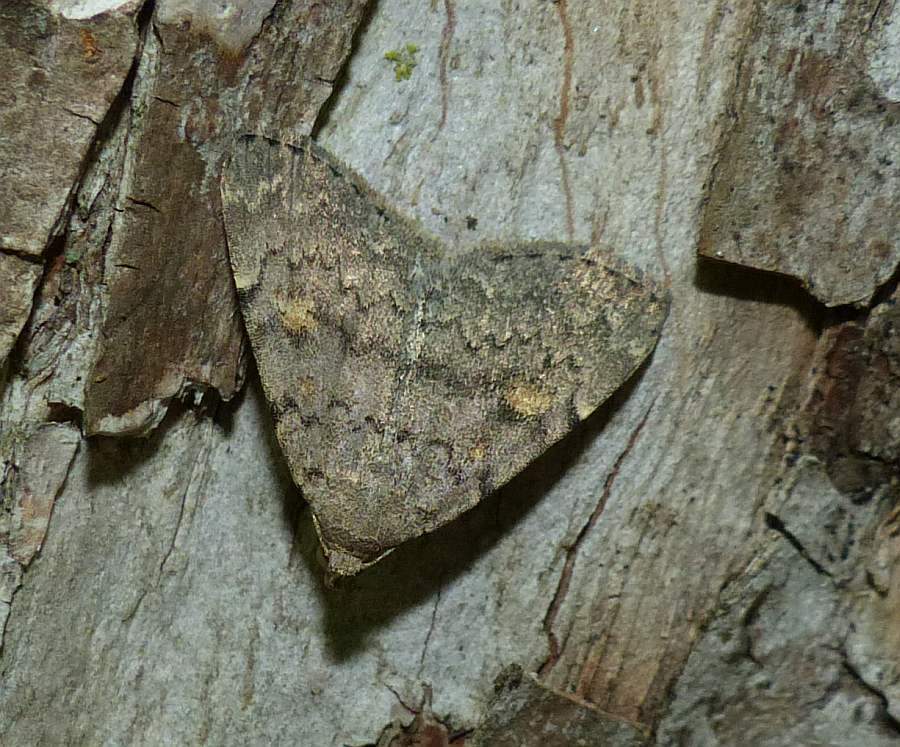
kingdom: Animalia
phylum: Arthropoda
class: Insecta
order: Lepidoptera
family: Erebidae
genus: Idia
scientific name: Idia aemula
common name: Common idia moth
